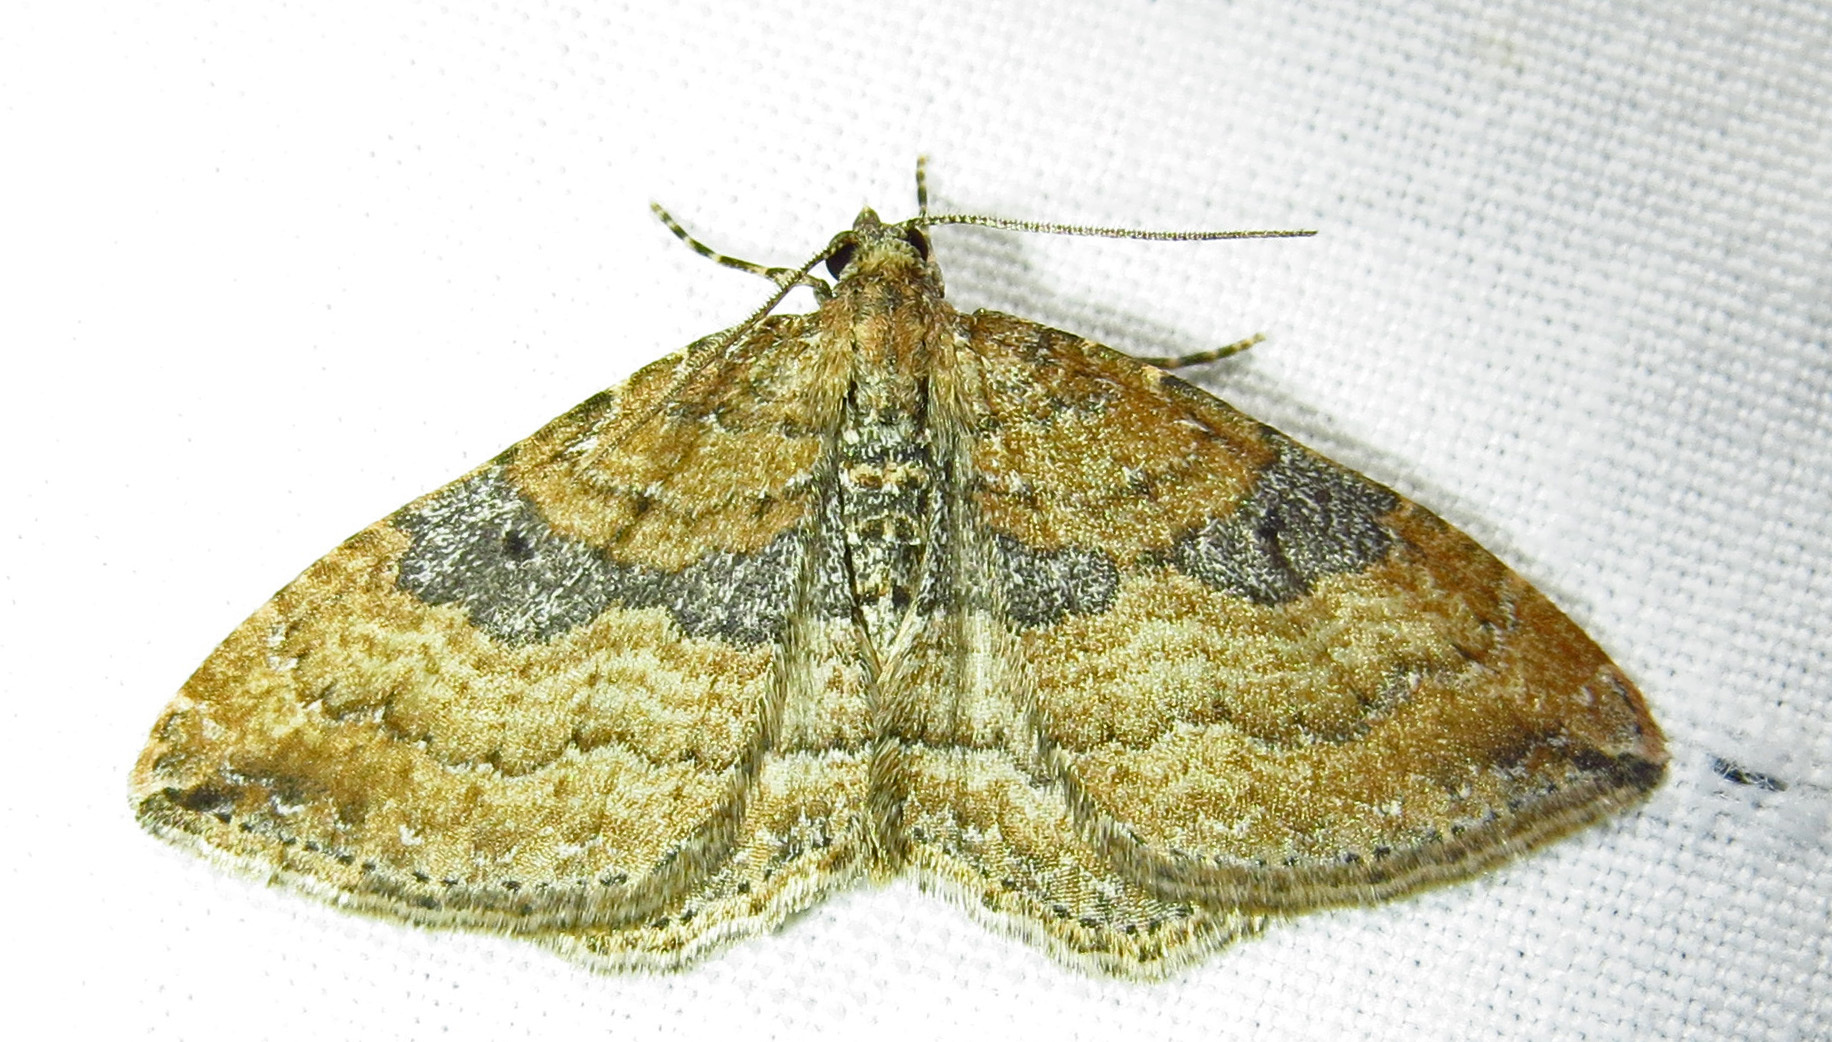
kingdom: Animalia
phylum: Arthropoda
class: Insecta
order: Lepidoptera
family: Geometridae
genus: Orthonama
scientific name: Orthonama obstipata
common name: The gem
